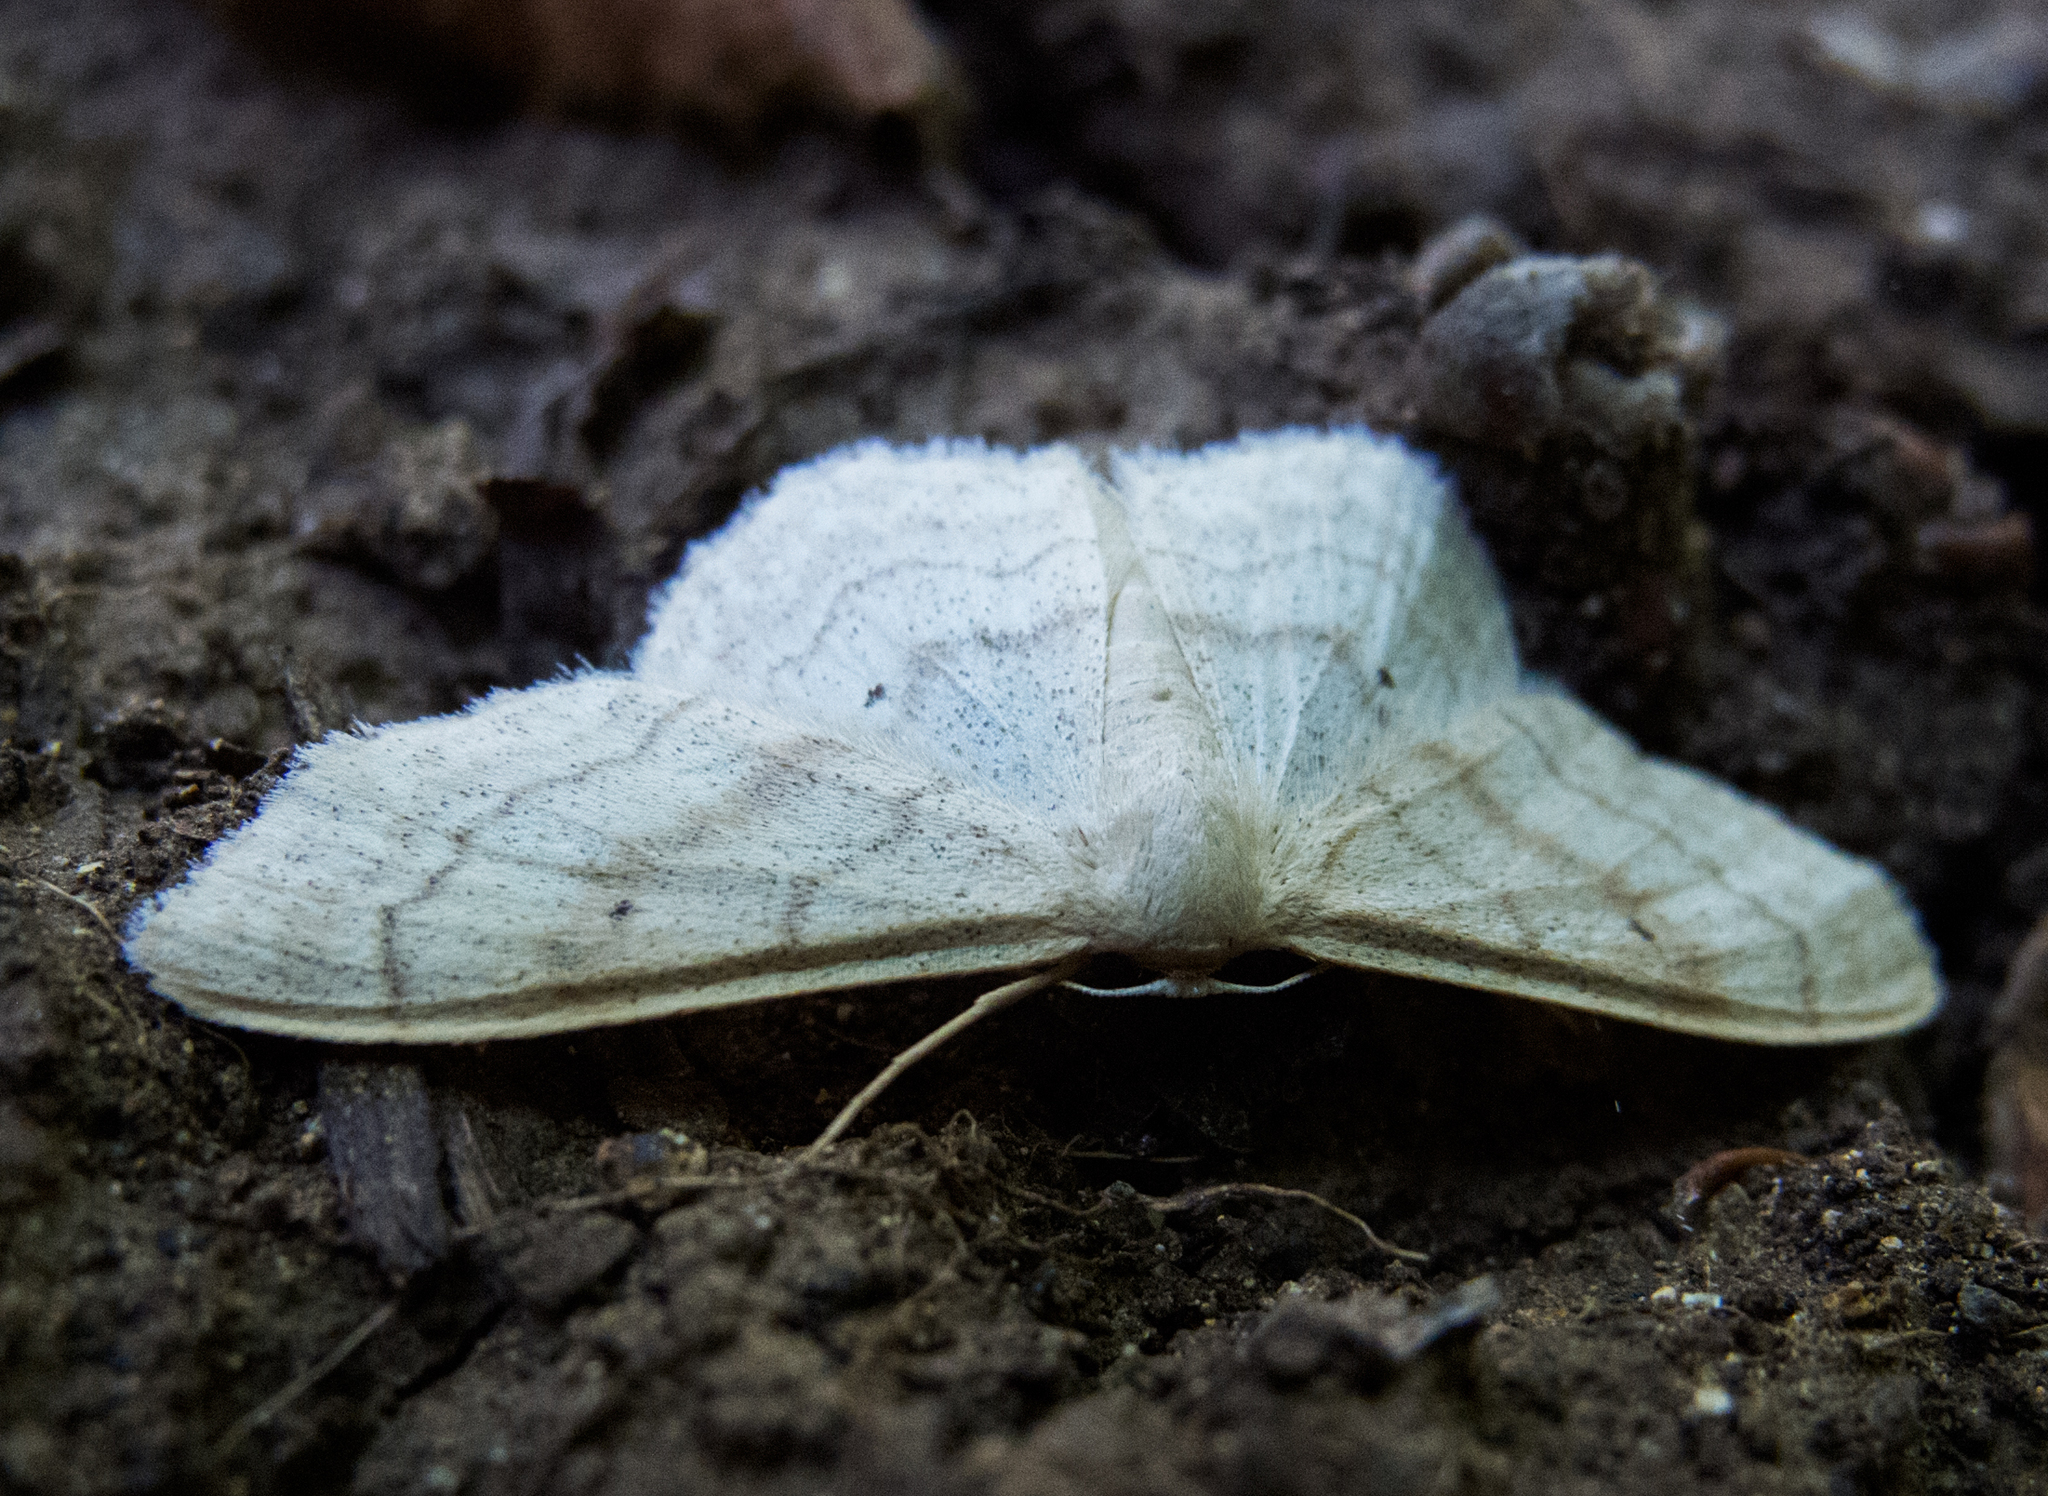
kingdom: Animalia
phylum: Arthropoda
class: Insecta
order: Lepidoptera
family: Geometridae
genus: Idaea
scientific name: Idaea maritimaria
